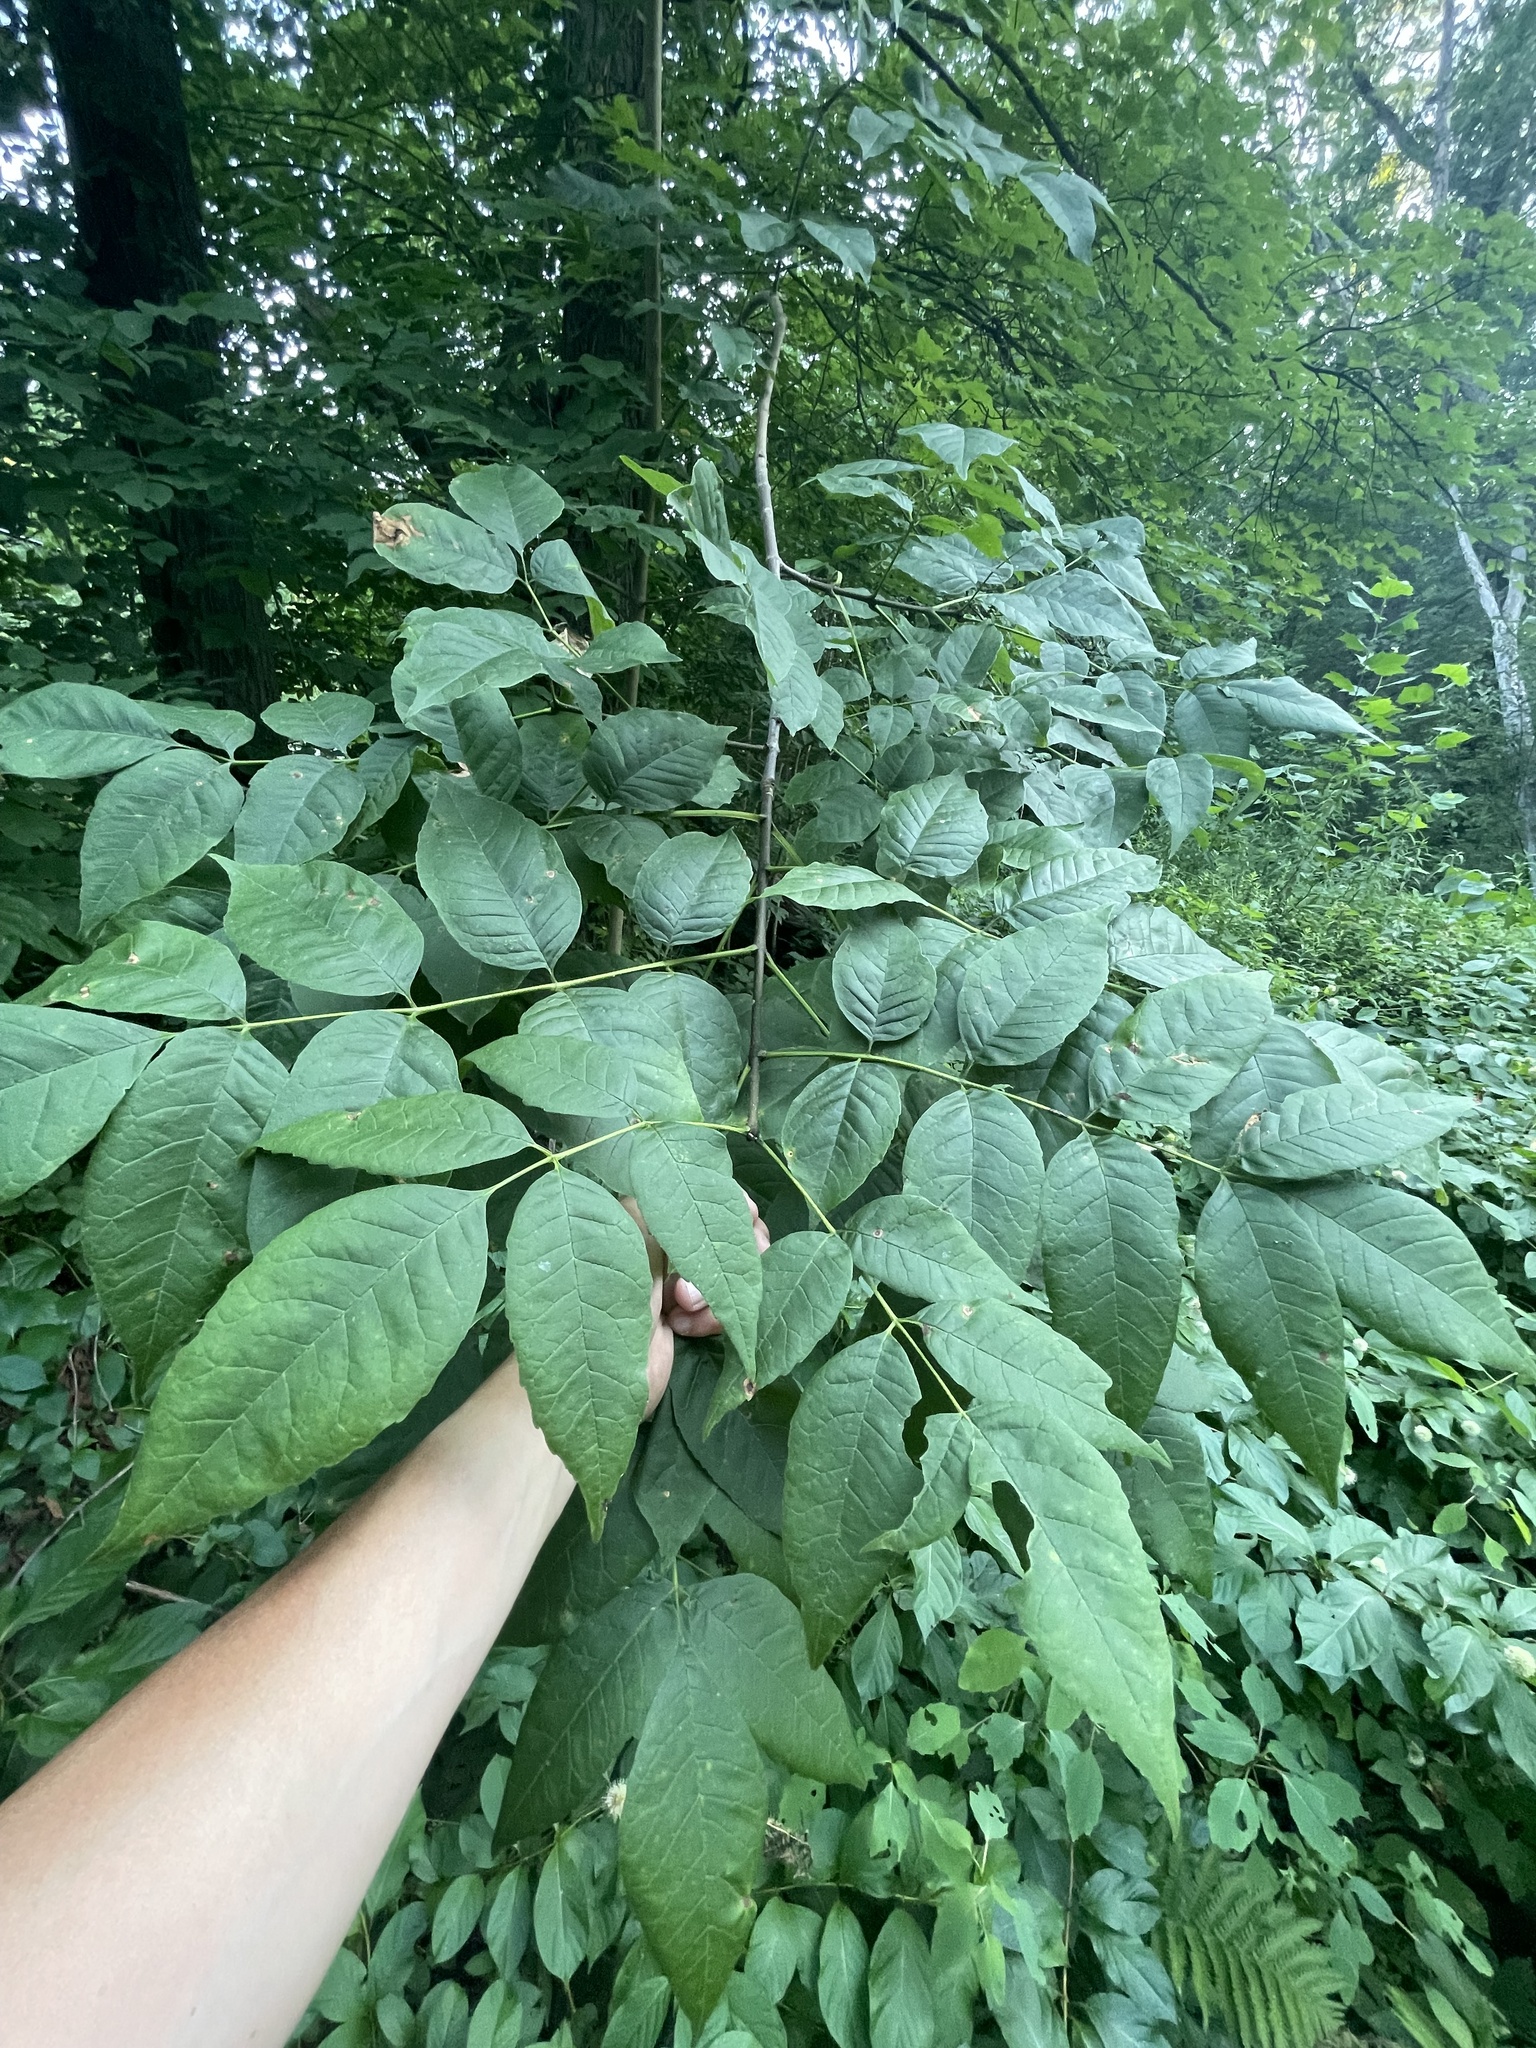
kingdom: Plantae
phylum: Tracheophyta
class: Magnoliopsida
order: Lamiales
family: Oleaceae
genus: Fraxinus
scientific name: Fraxinus americana
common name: White ash
